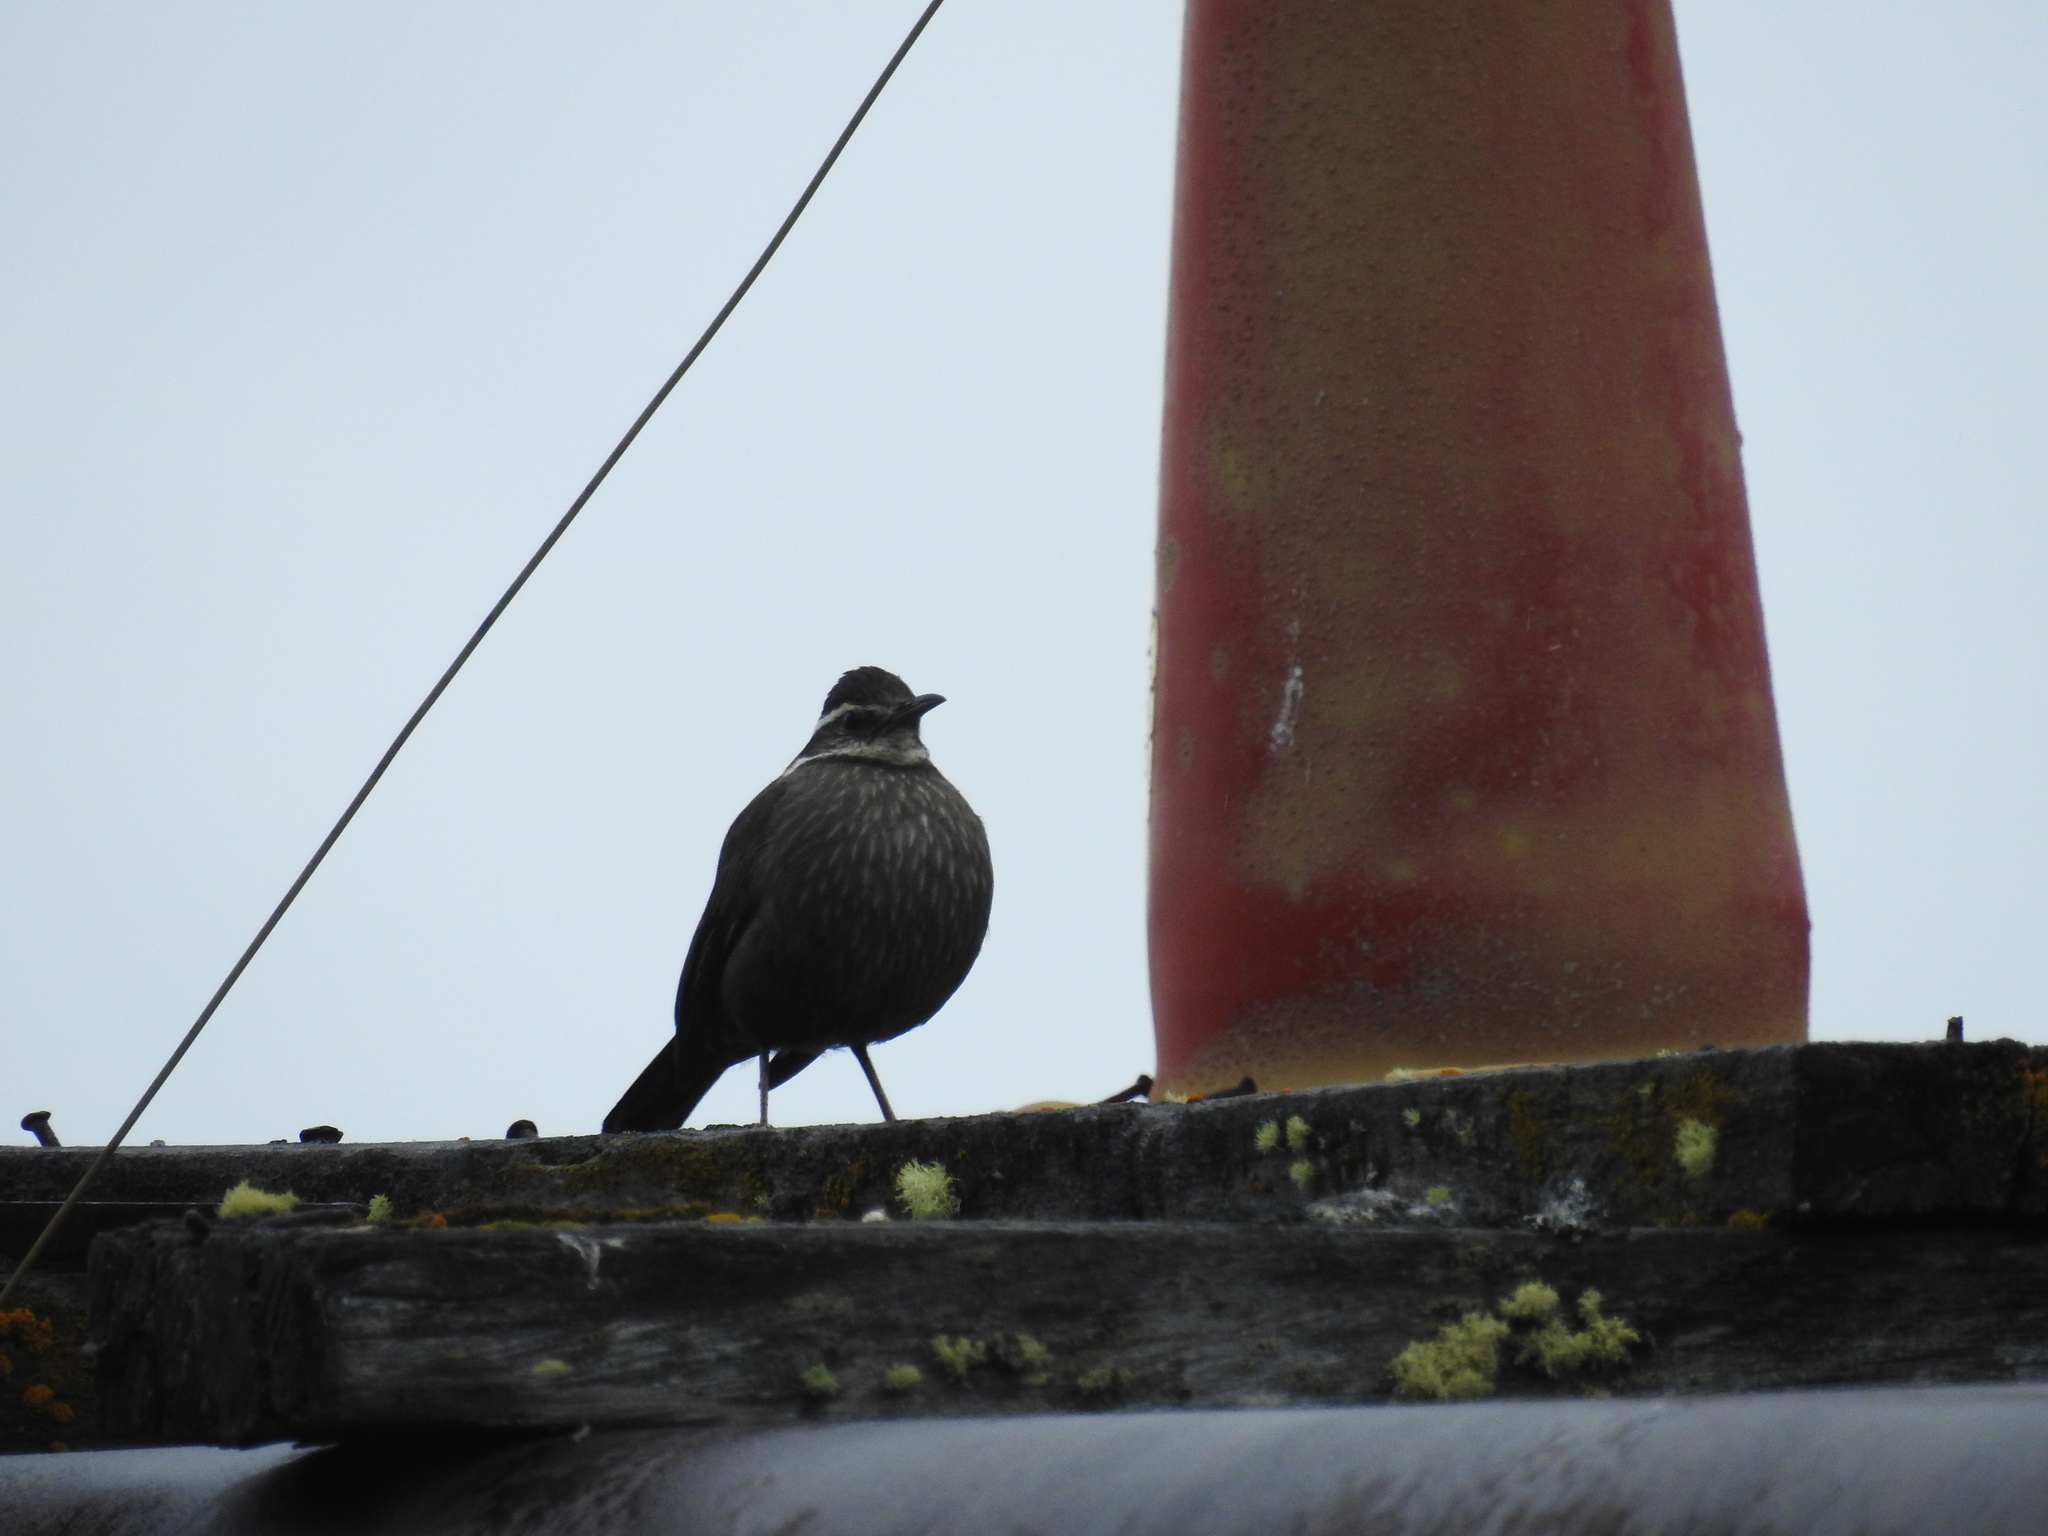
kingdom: Animalia
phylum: Chordata
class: Aves
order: Passeriformes
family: Furnariidae
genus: Cinclodes
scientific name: Cinclodes patagonicus
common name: Dark-bellied cinclodes
